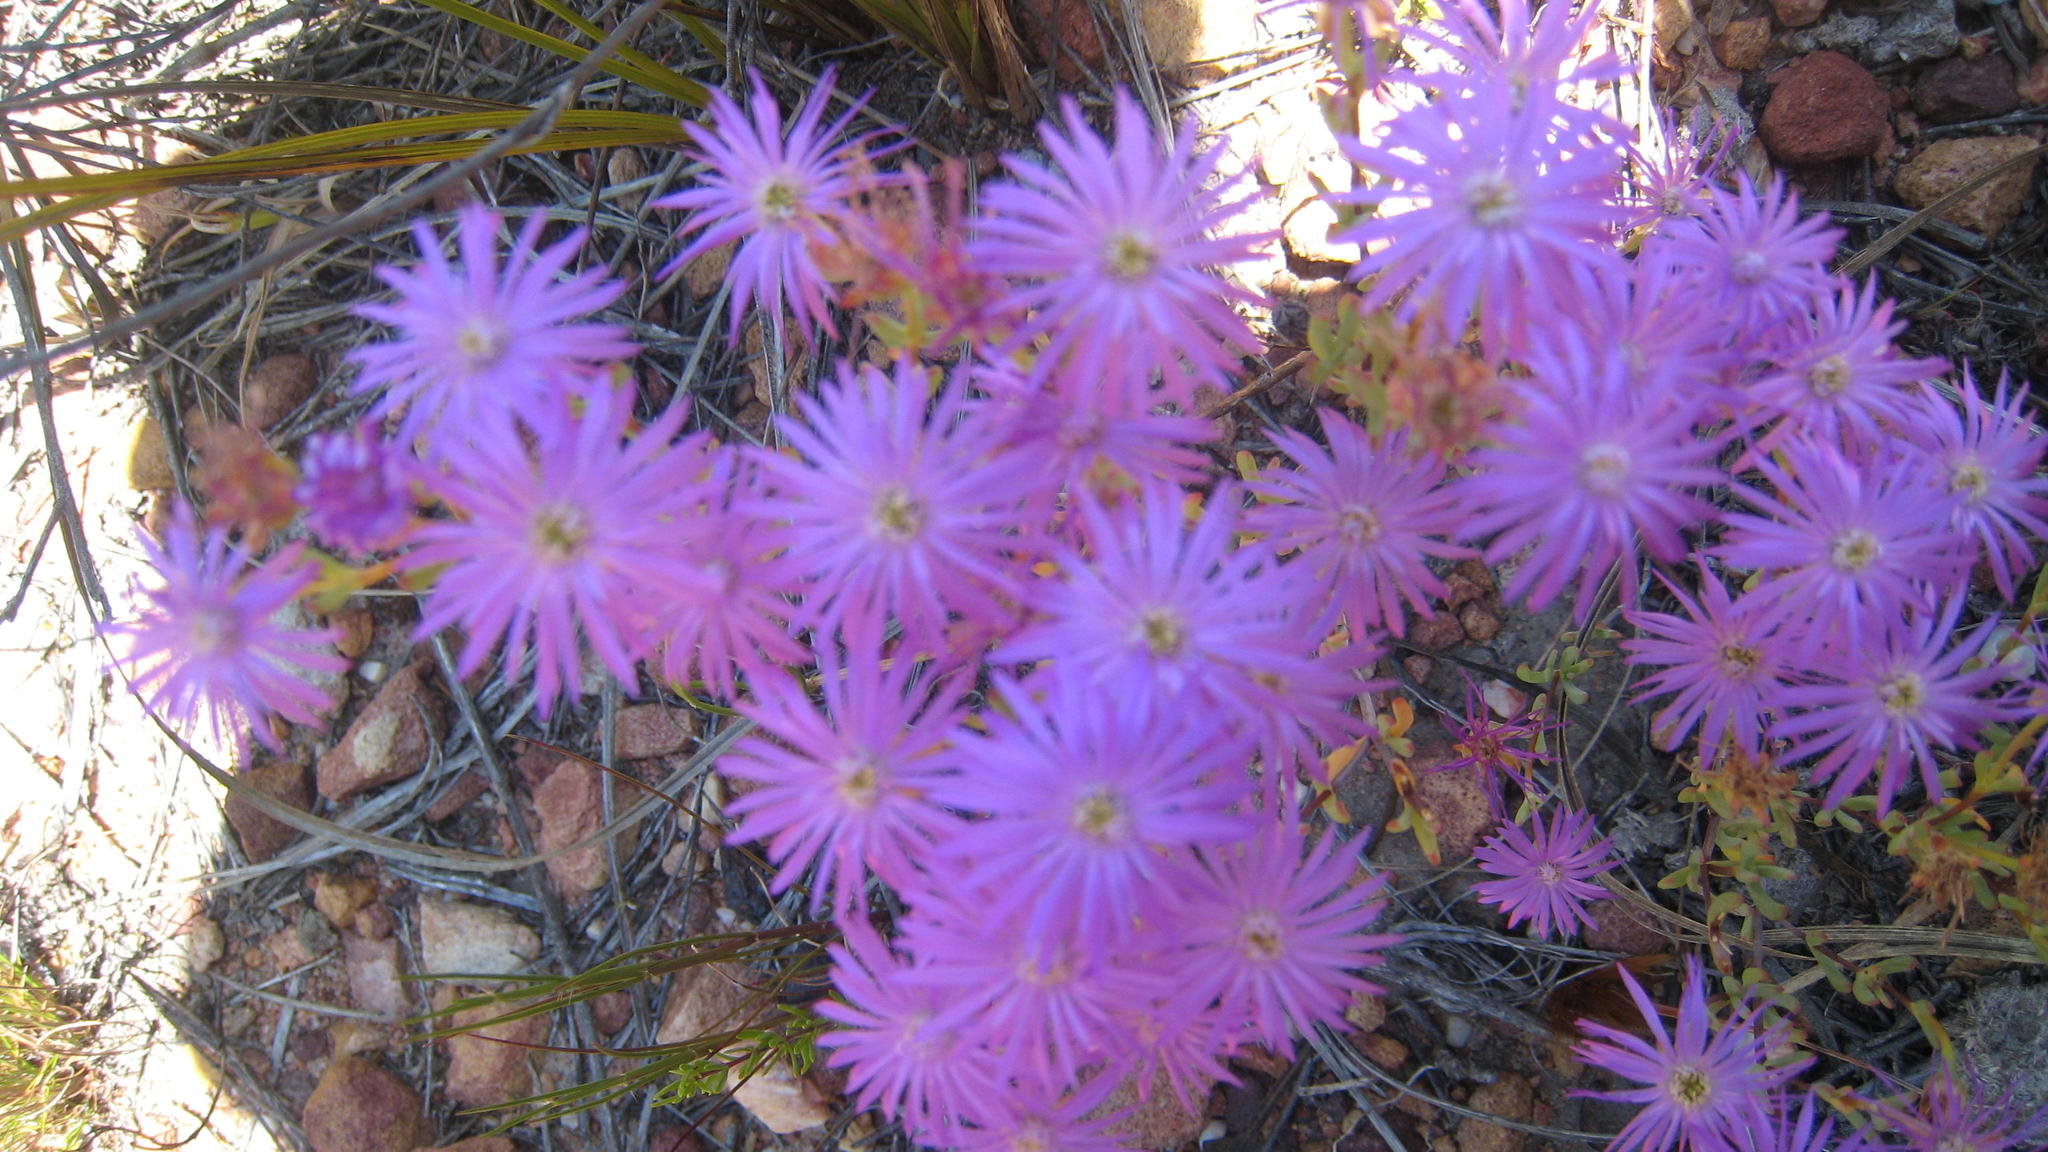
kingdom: Plantae
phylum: Tracheophyta
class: Magnoliopsida
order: Caryophyllales
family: Aizoaceae
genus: Lampranthus
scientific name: Lampranthus coralliflorus
